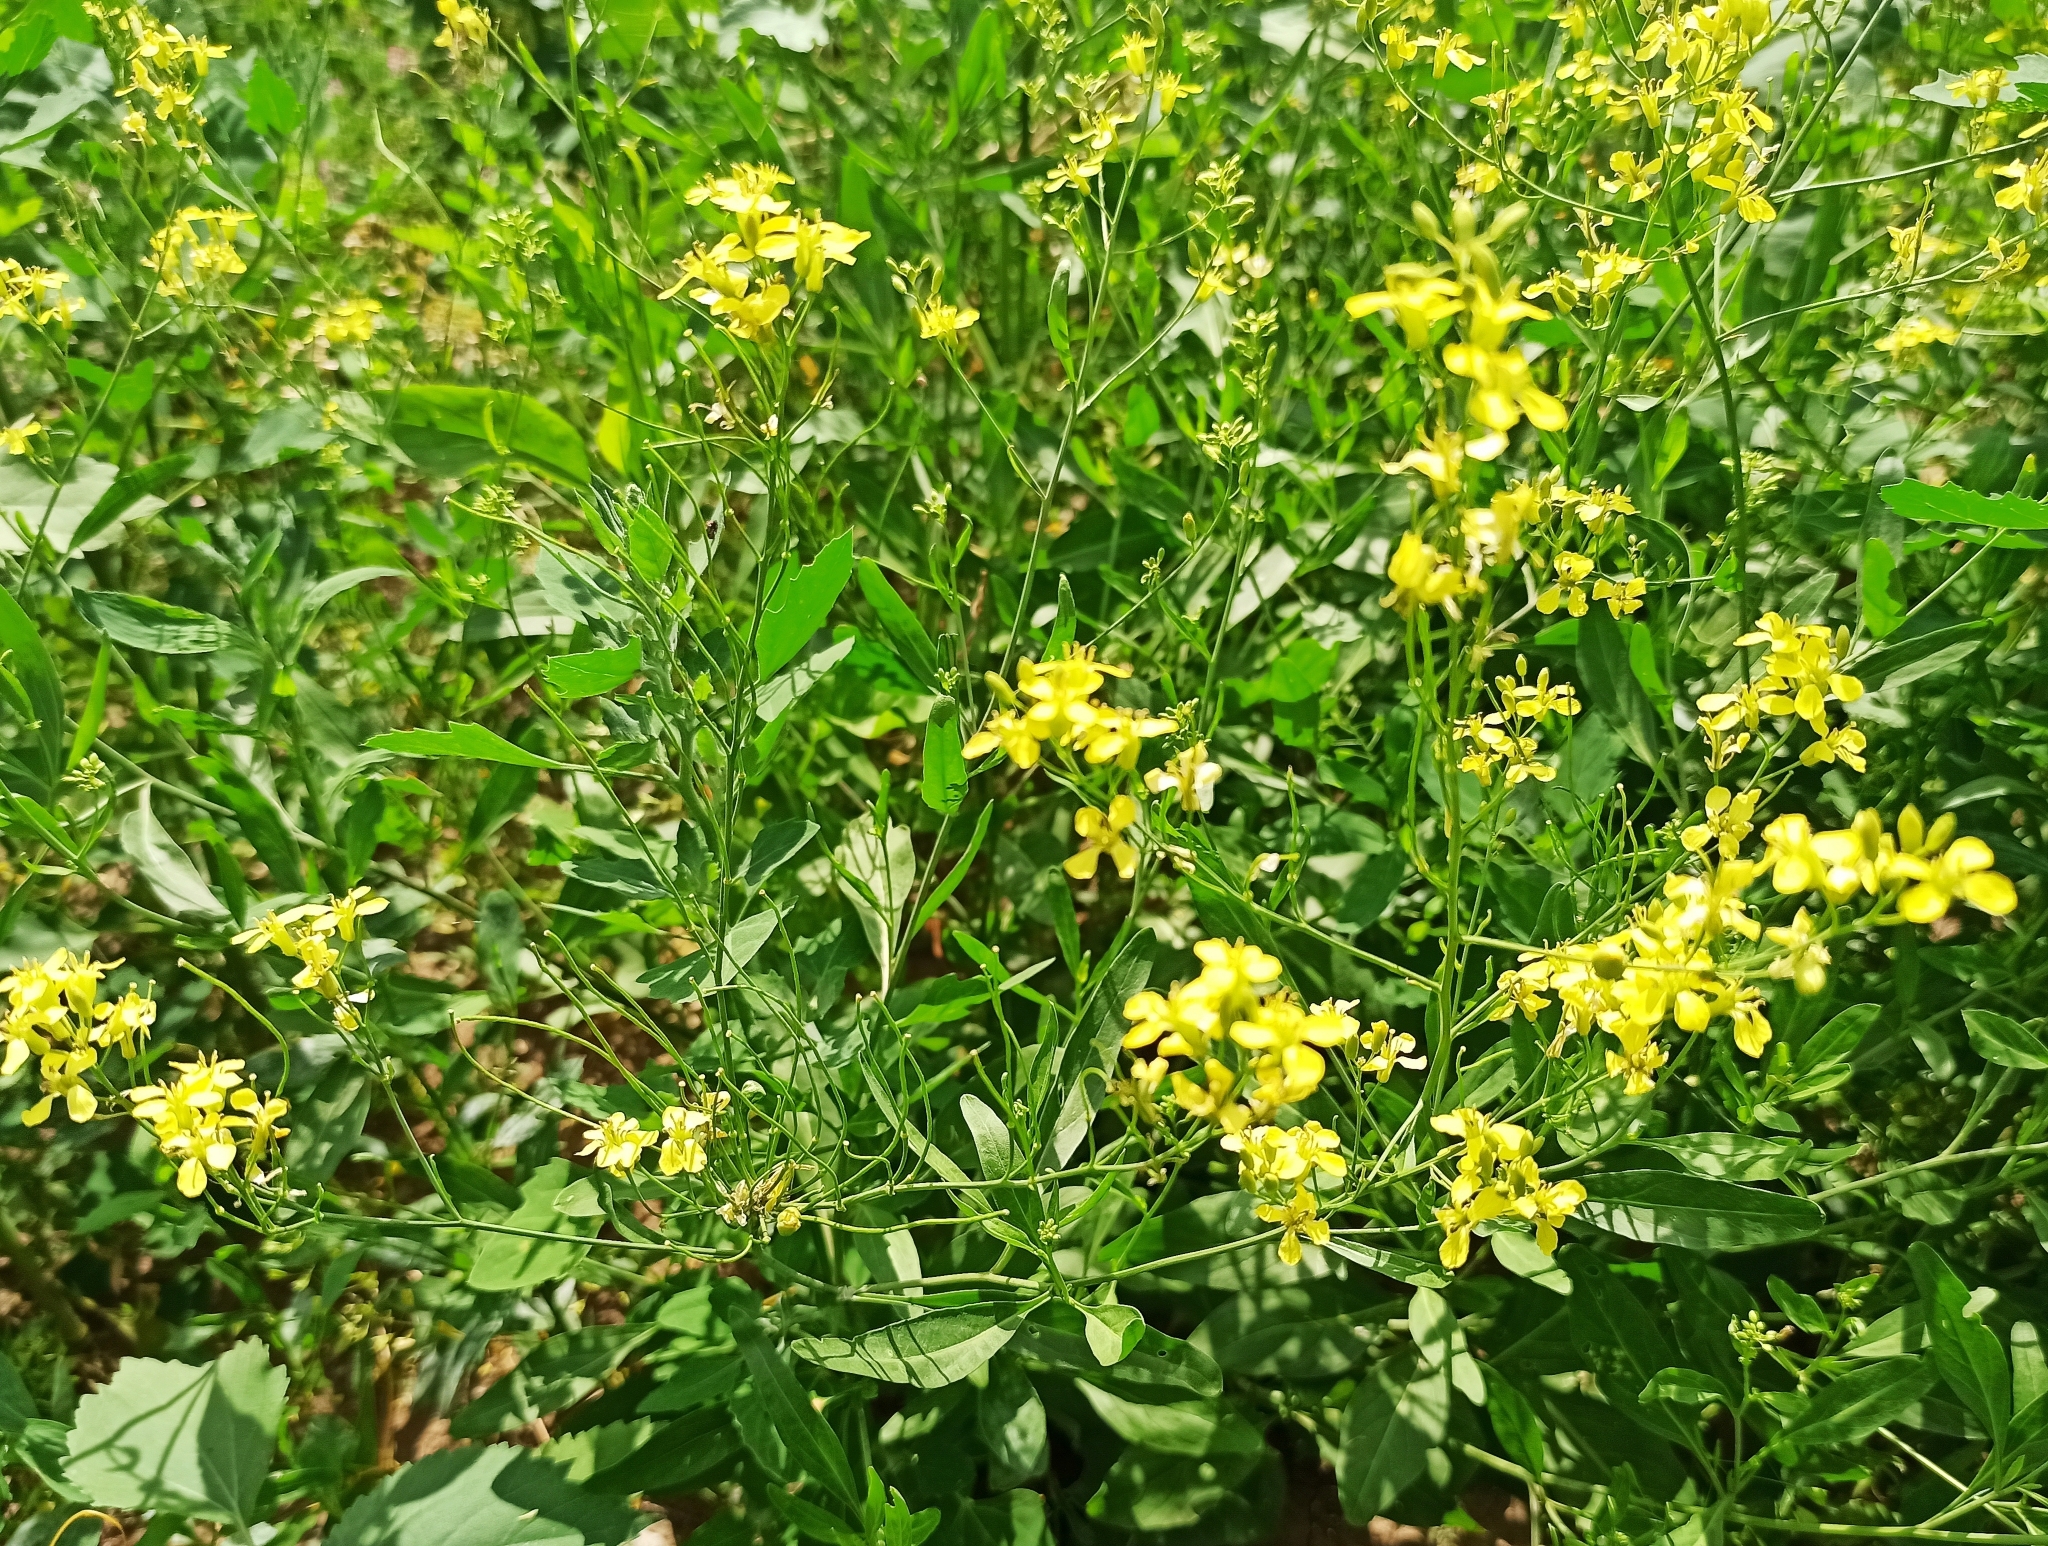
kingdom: Plantae
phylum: Tracheophyta
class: Magnoliopsida
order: Brassicales
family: Brassicaceae
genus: Sisymbrium
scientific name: Sisymbrium volgense
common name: Russian mustard
